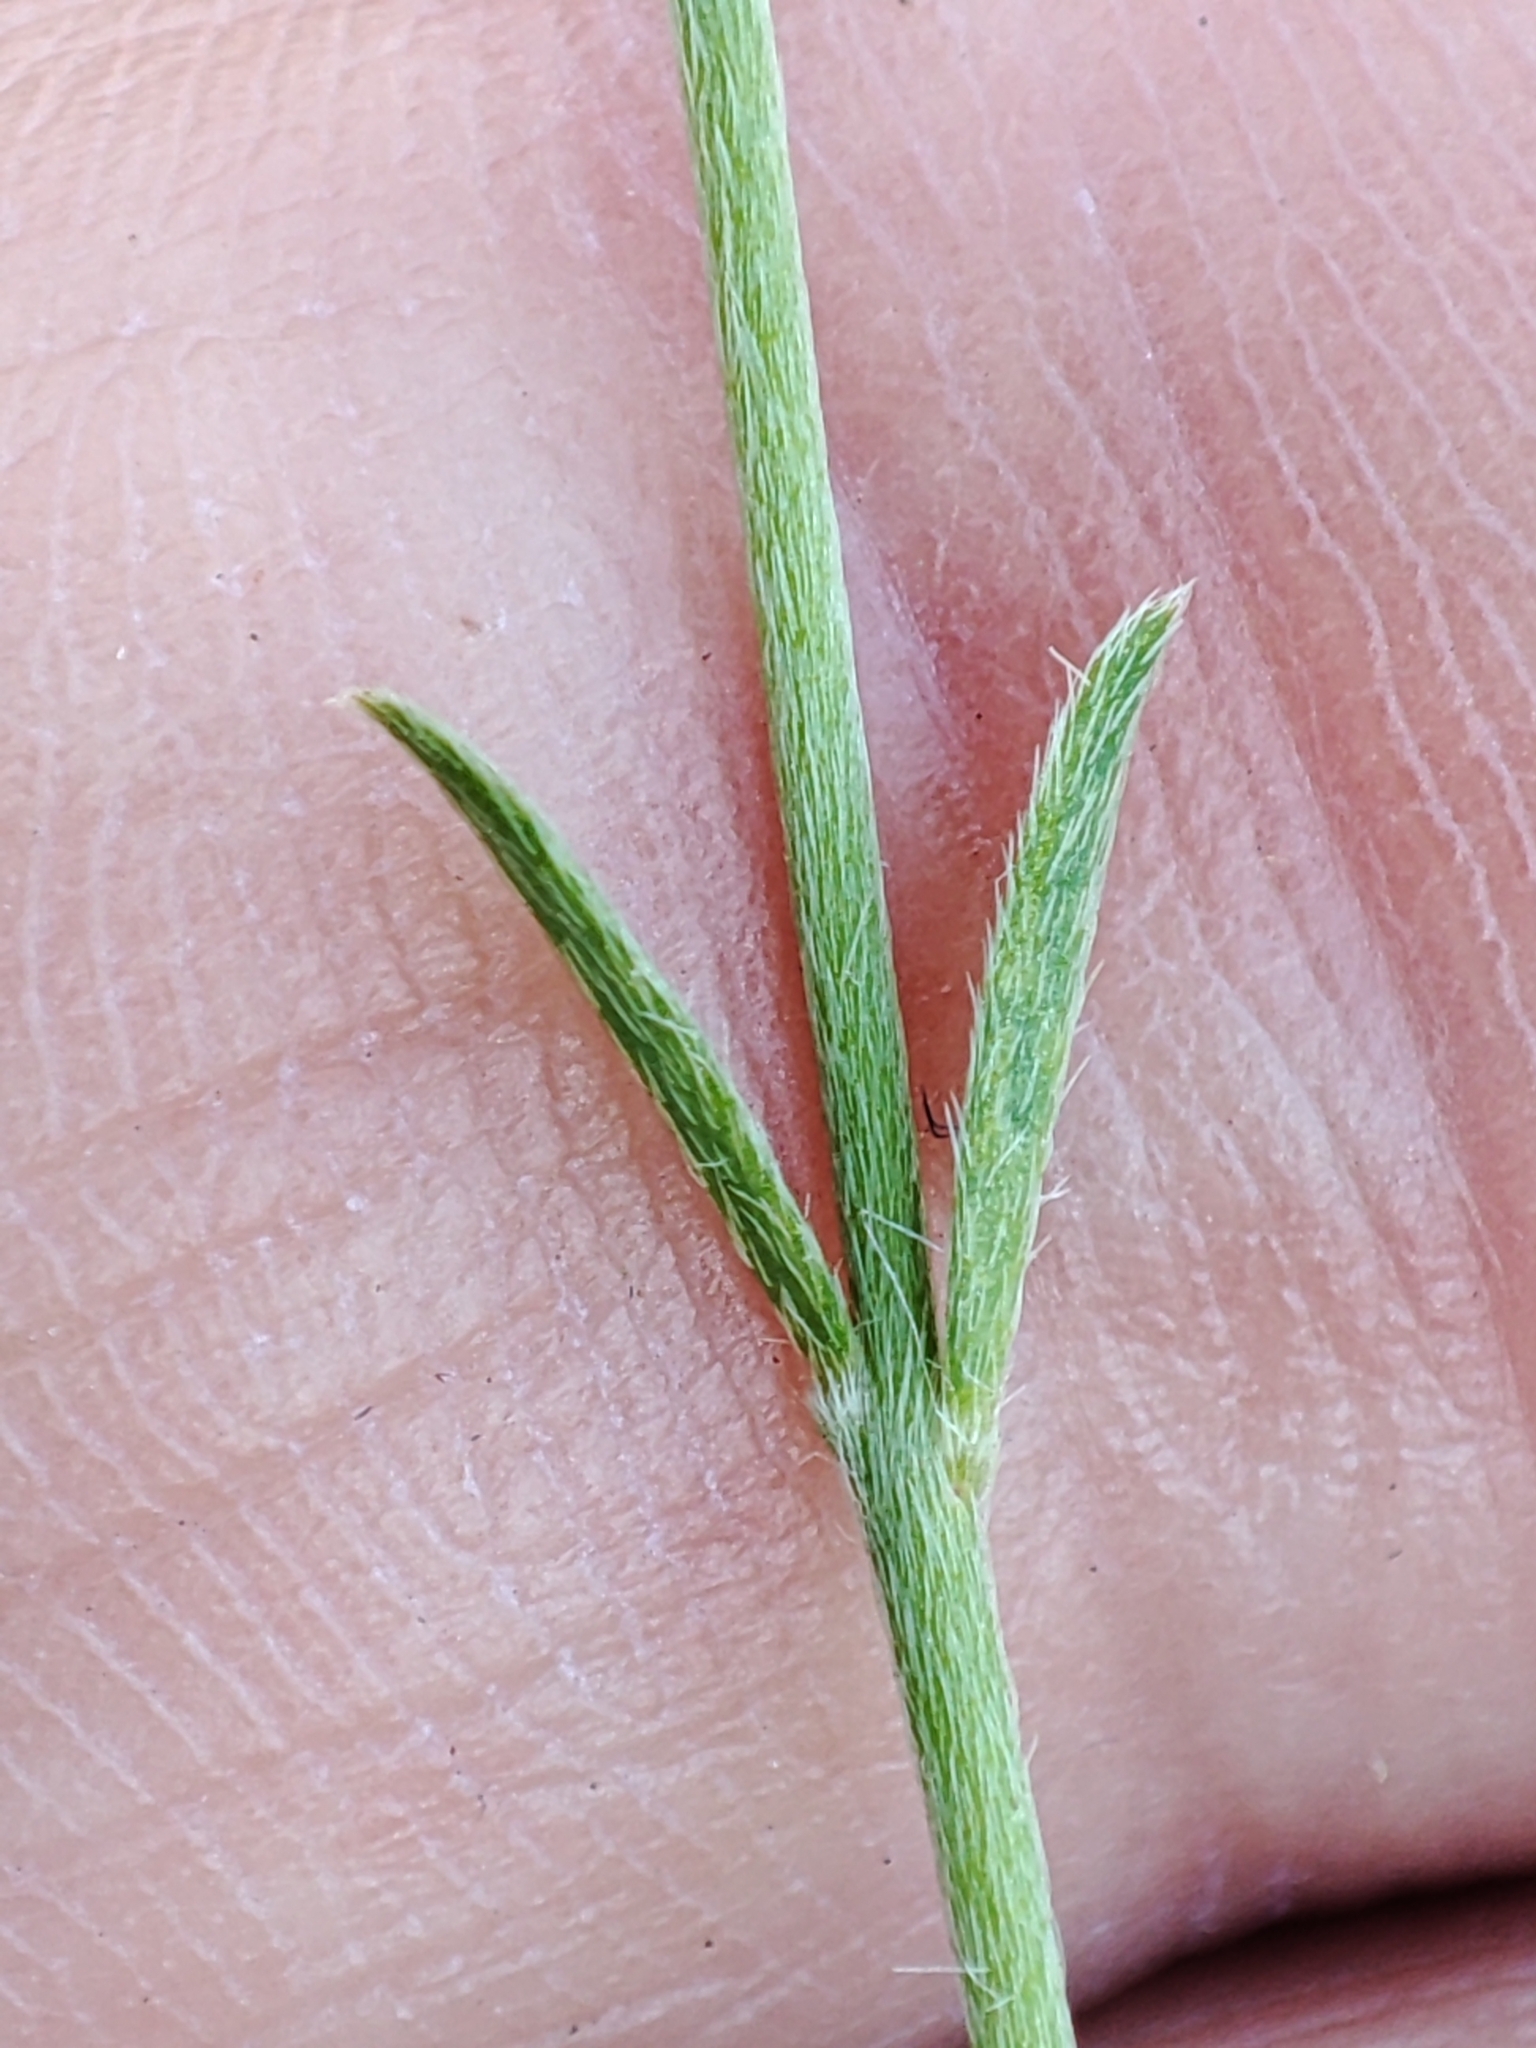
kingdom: Plantae
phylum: Tracheophyta
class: Magnoliopsida
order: Malvales
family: Thymelaeaceae
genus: Pimelea
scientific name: Pimelea curviflora
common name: Curved riceflower
